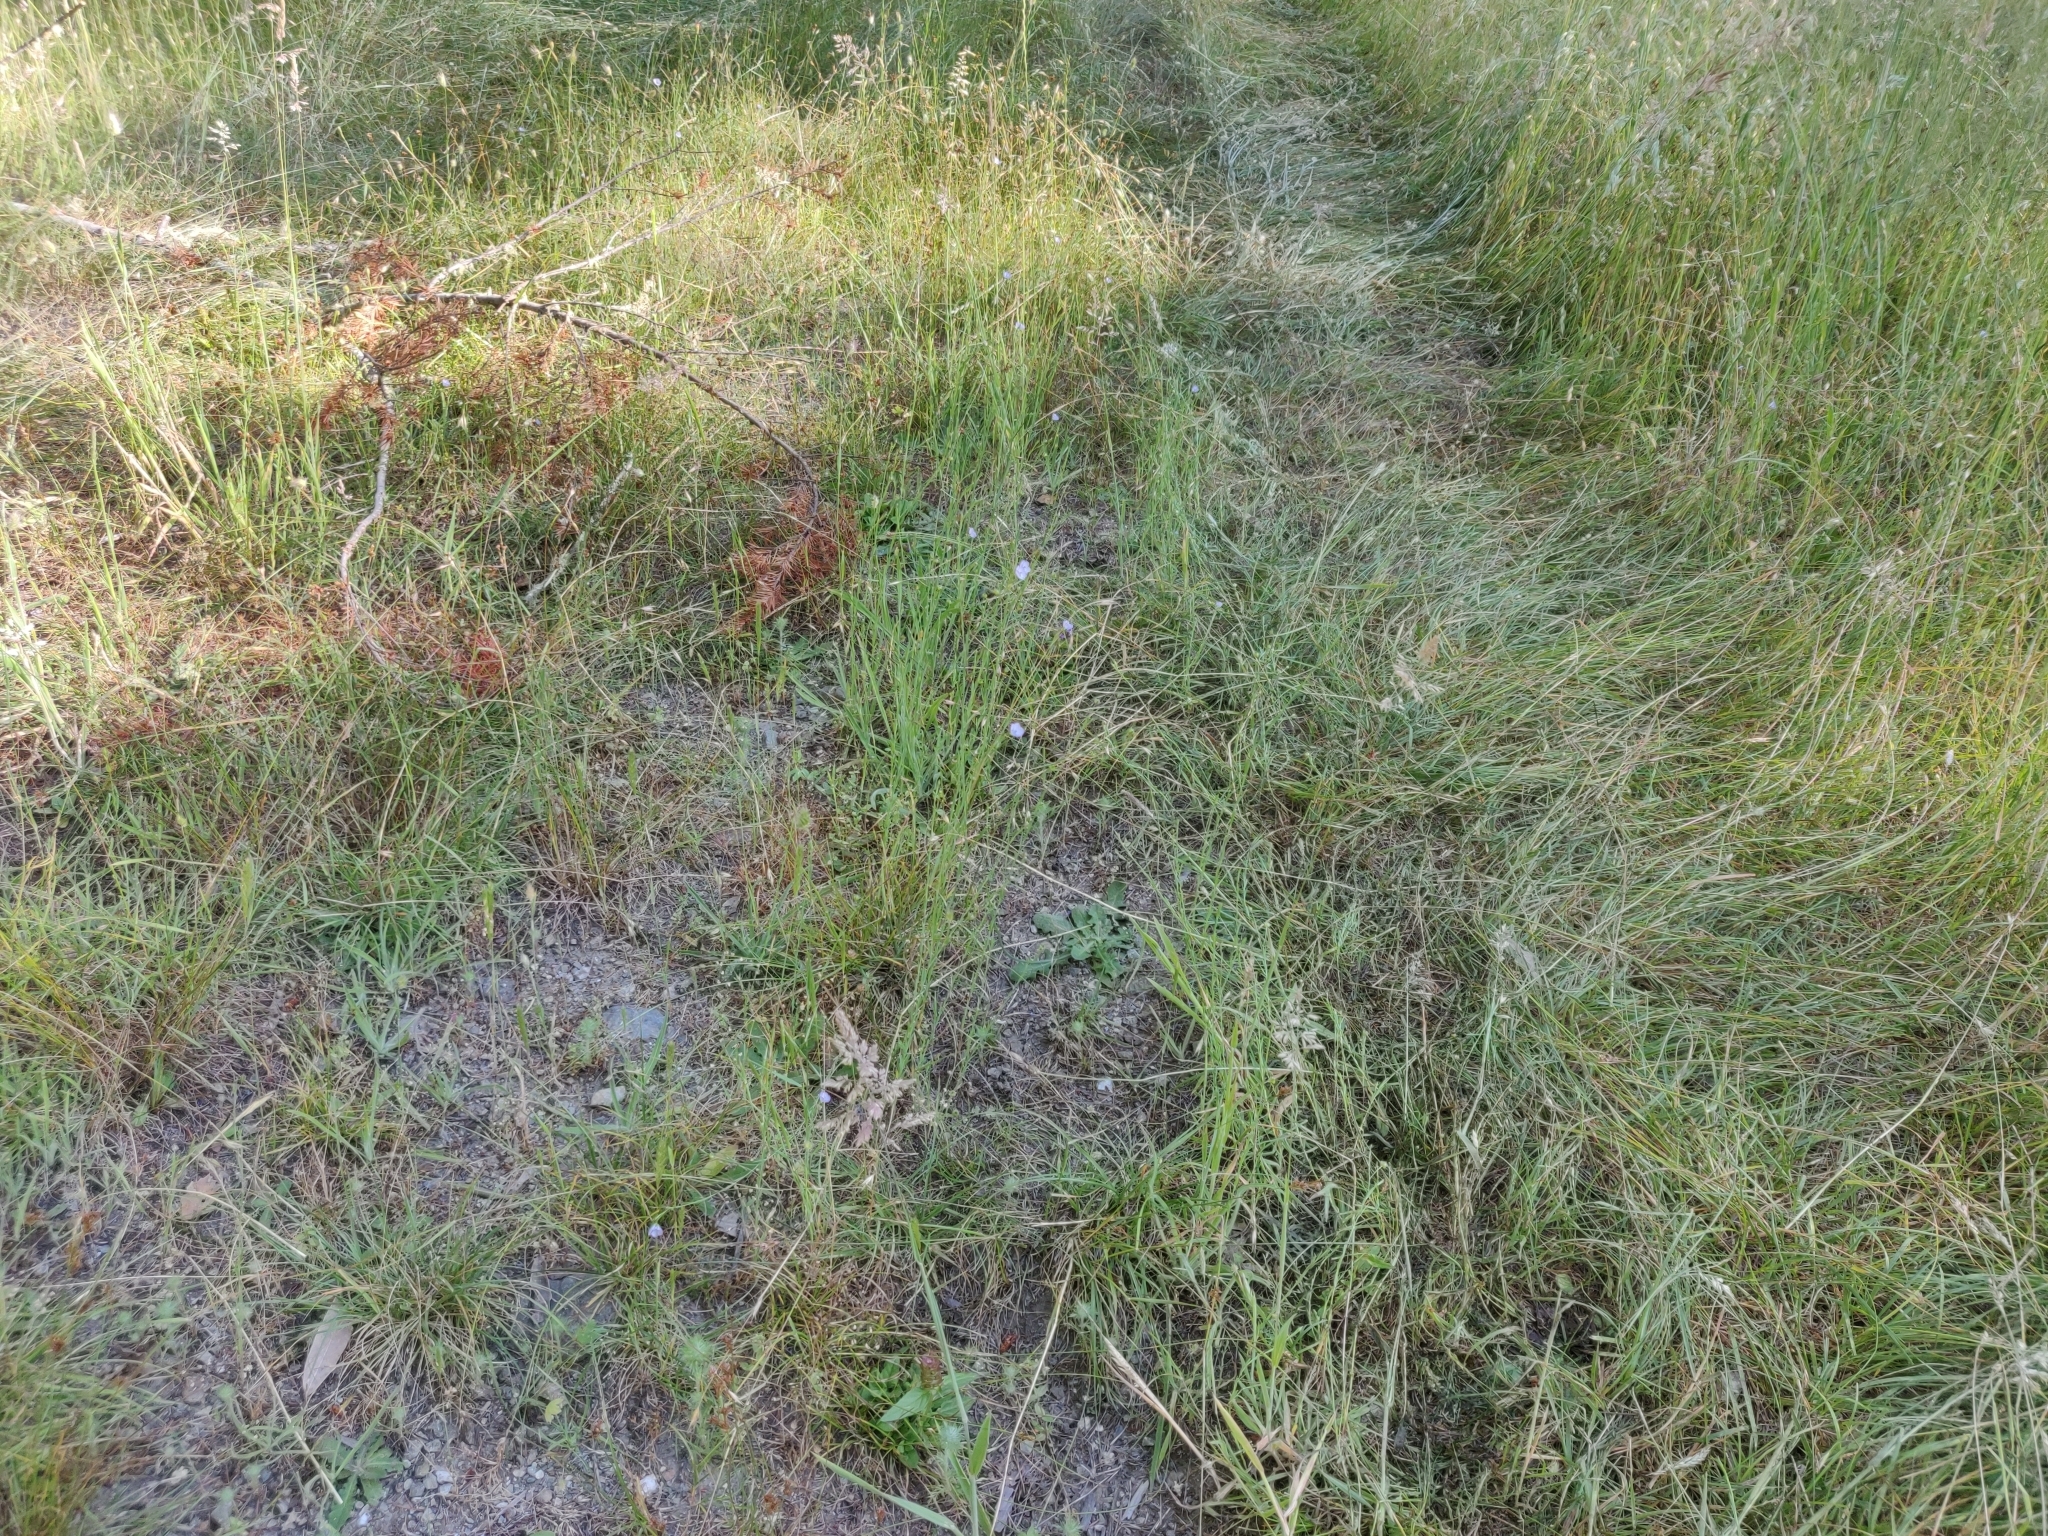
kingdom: Plantae
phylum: Tracheophyta
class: Magnoliopsida
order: Malpighiales
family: Linaceae
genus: Linum
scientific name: Linum bienne
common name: Pale flax
